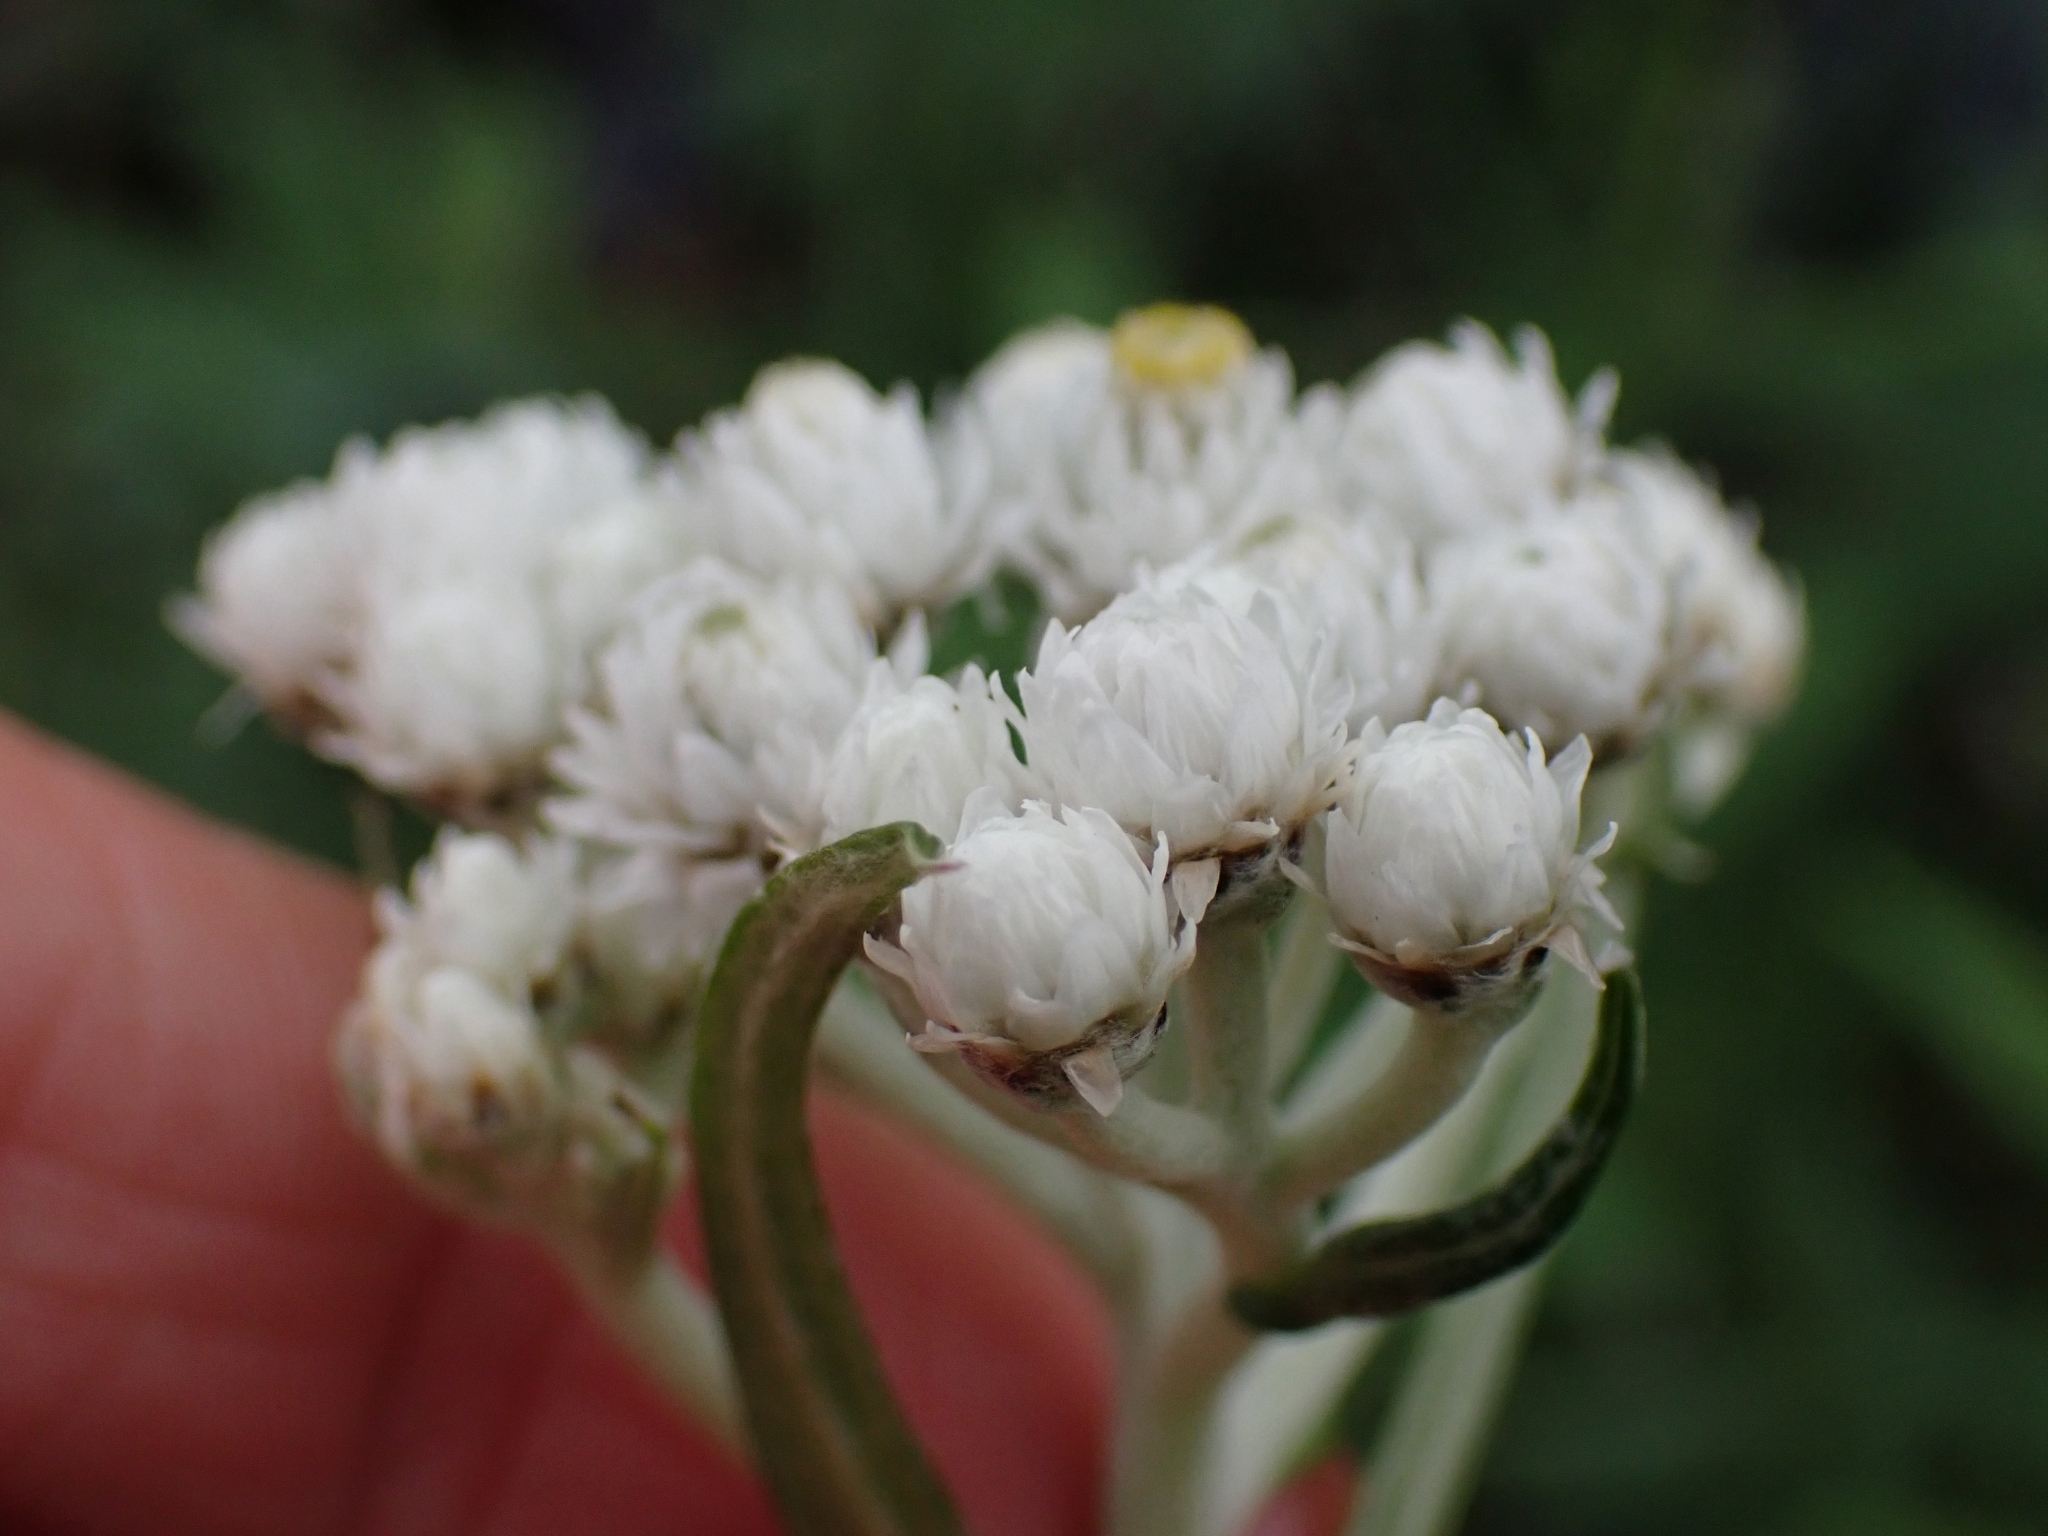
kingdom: Plantae
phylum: Tracheophyta
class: Magnoliopsida
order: Asterales
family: Asteraceae
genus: Anaphalis
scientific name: Anaphalis margaritacea
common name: Pearly everlasting
